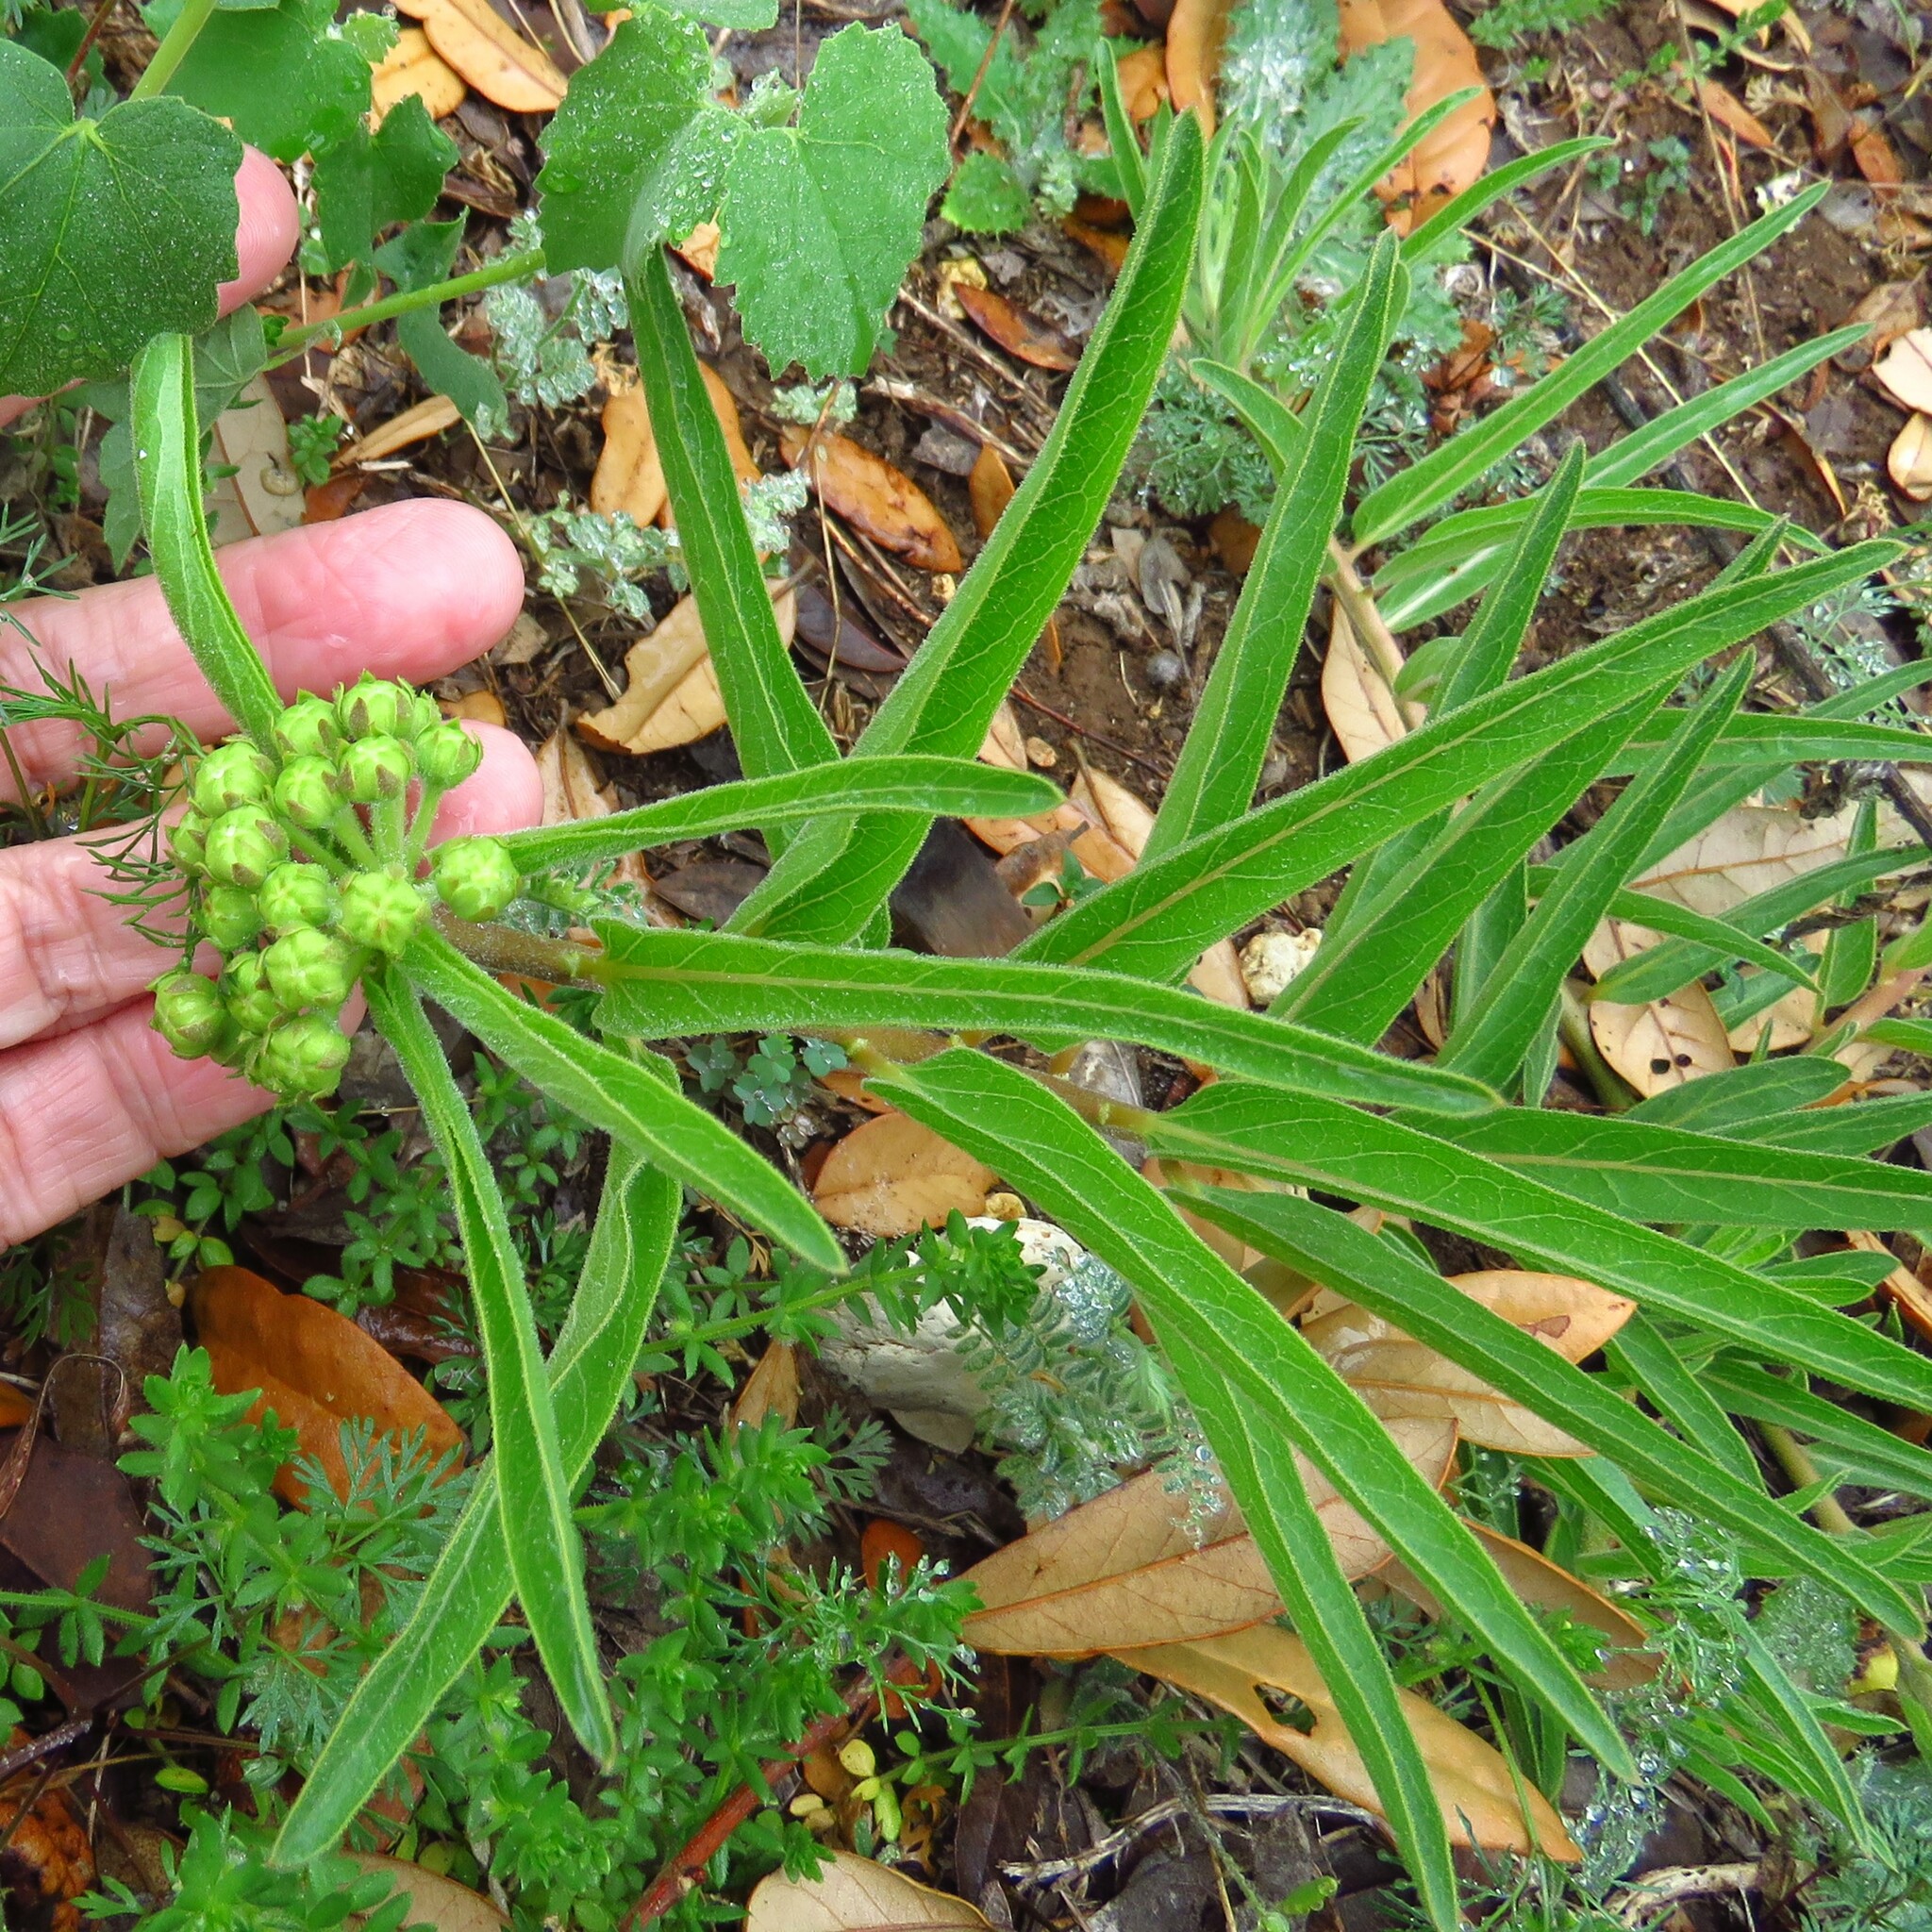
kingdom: Plantae
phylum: Tracheophyta
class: Magnoliopsida
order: Gentianales
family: Apocynaceae
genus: Asclepias
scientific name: Asclepias asperula
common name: Antelope horns
